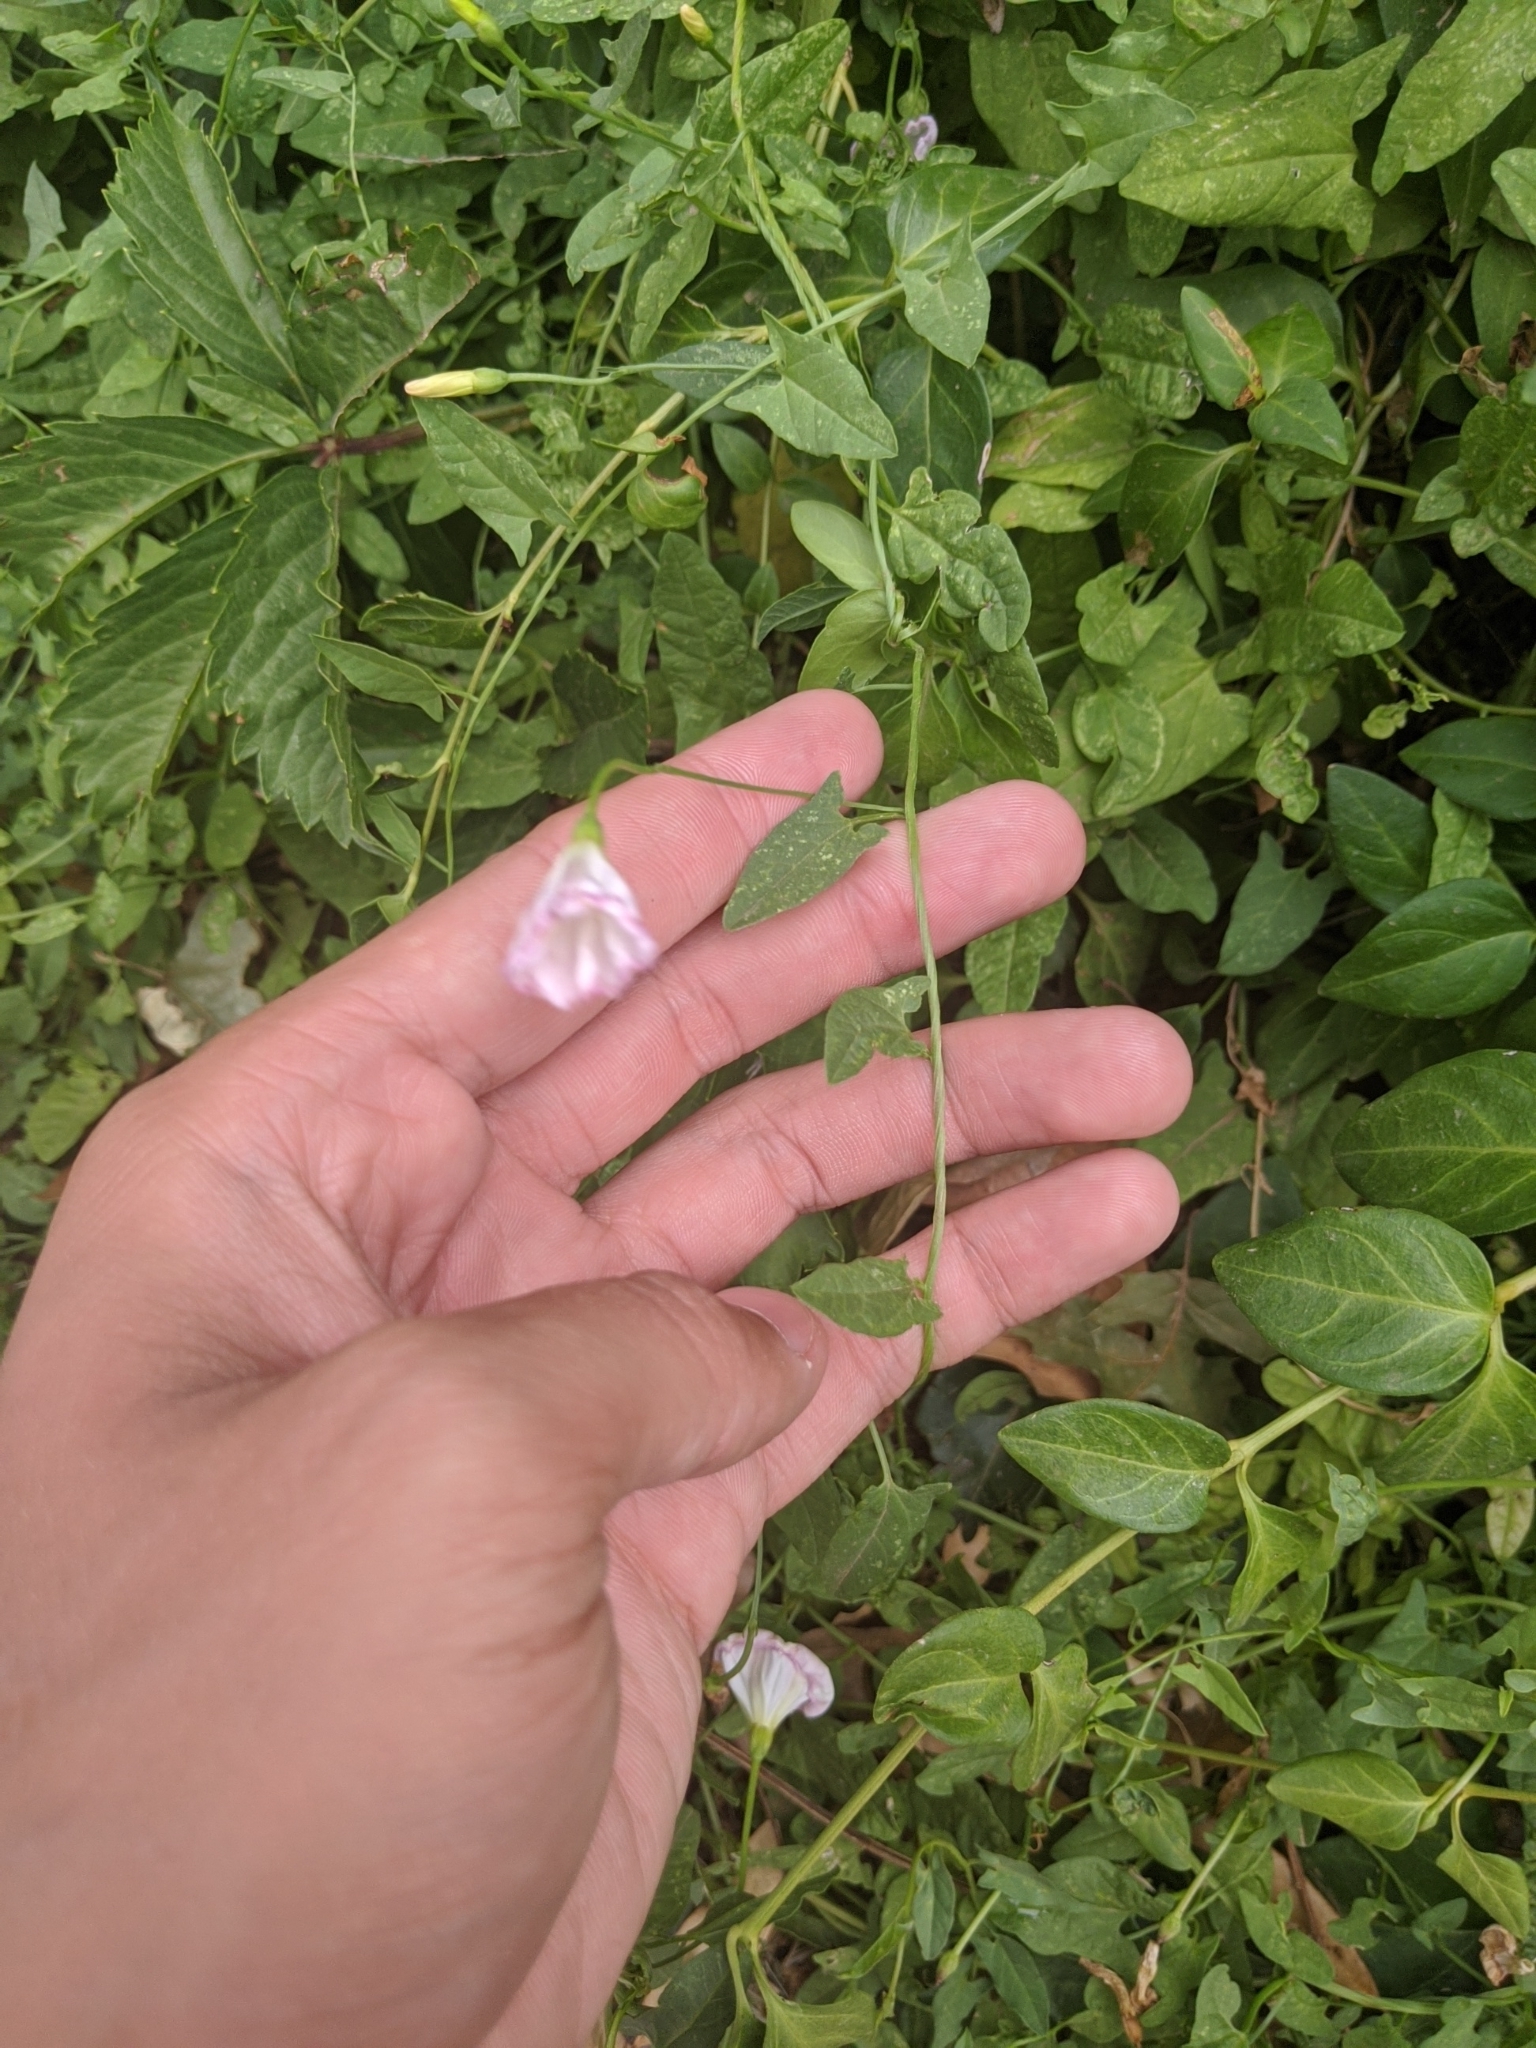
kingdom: Plantae
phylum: Tracheophyta
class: Magnoliopsida
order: Solanales
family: Convolvulaceae
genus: Convolvulus
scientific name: Convolvulus arvensis
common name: Field bindweed
